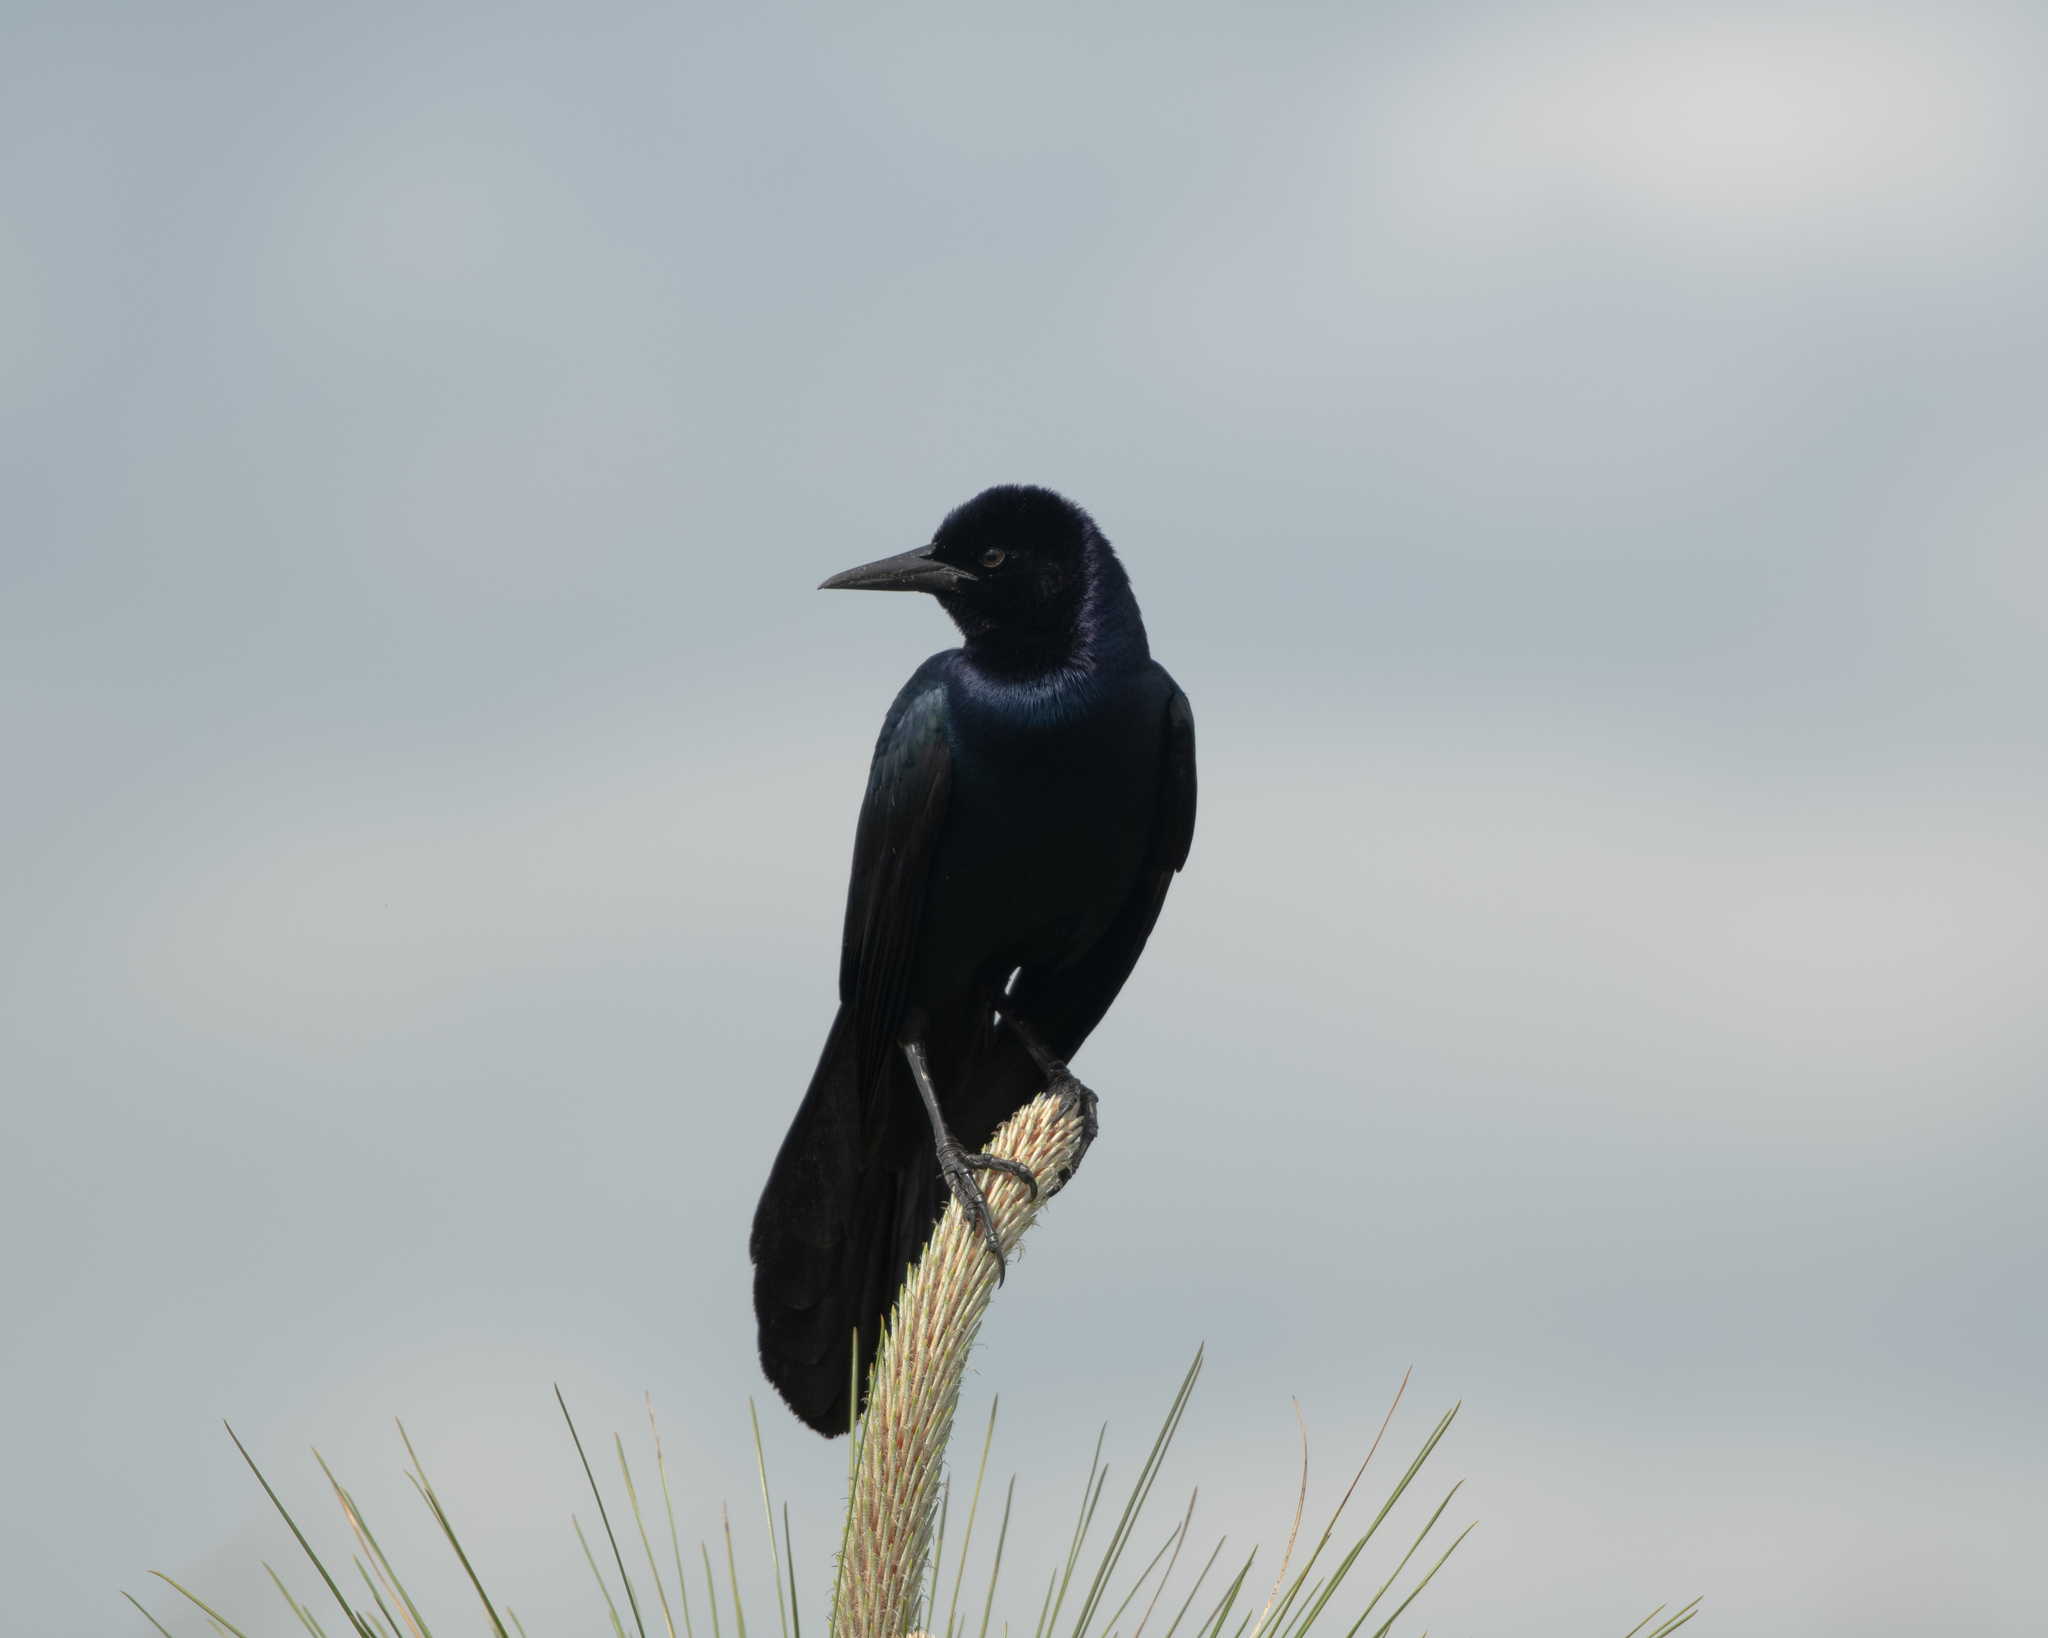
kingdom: Animalia
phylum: Chordata
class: Aves
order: Passeriformes
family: Icteridae
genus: Quiscalus
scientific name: Quiscalus major
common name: Boat-tailed grackle
